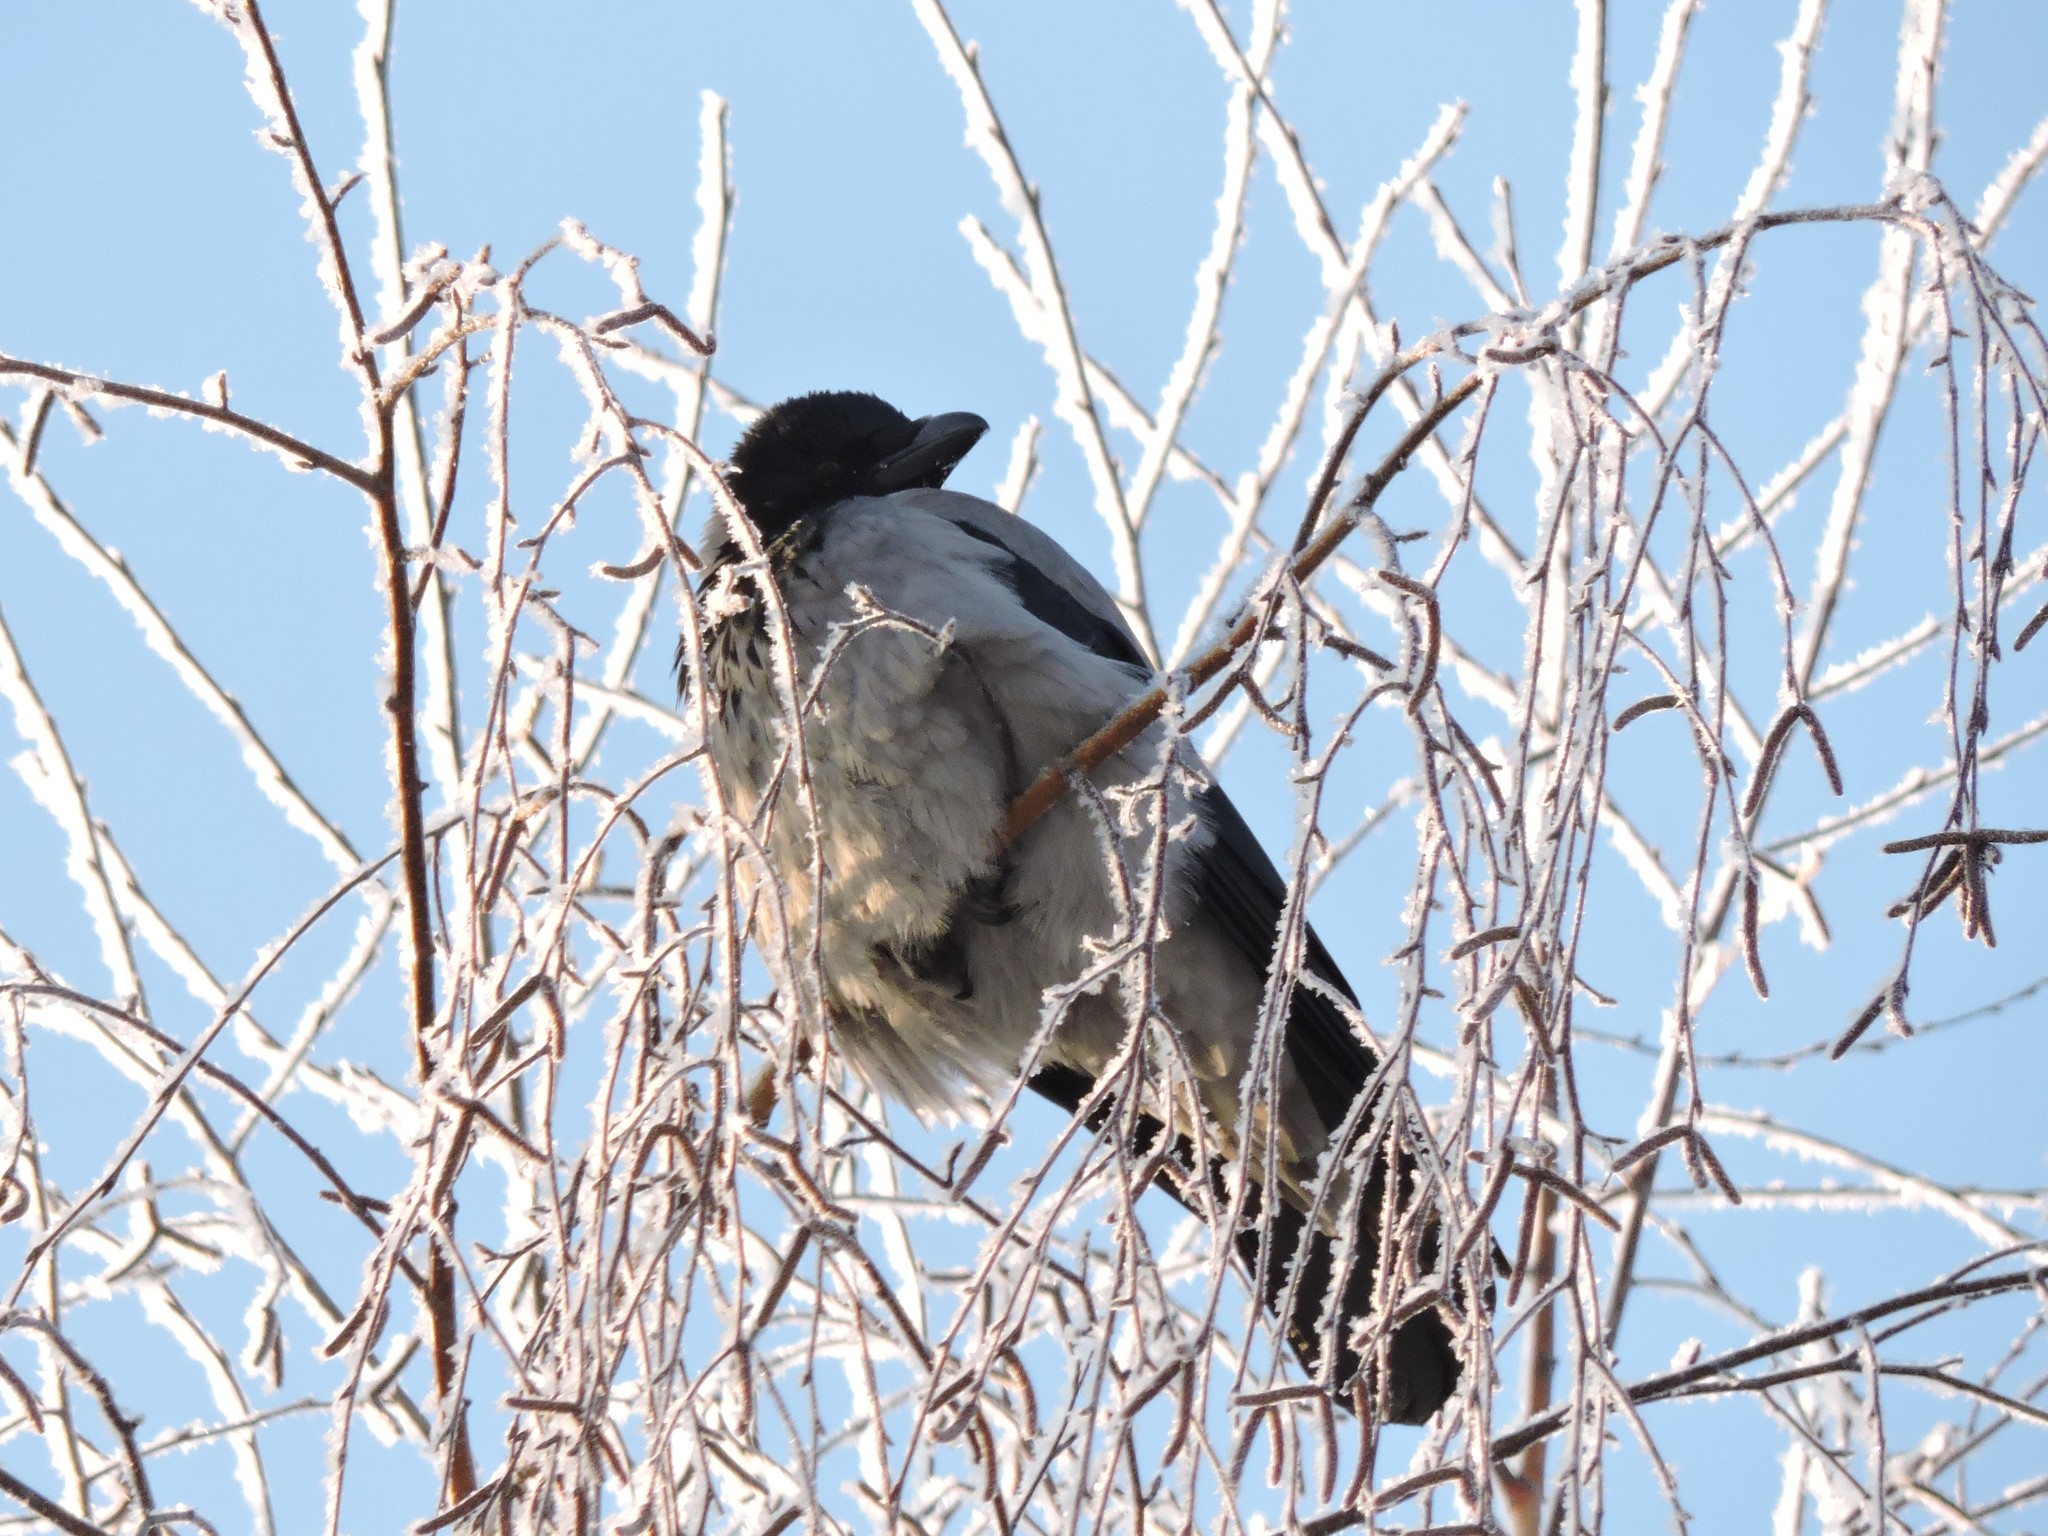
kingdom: Animalia
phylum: Chordata
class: Aves
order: Passeriformes
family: Corvidae
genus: Corvus
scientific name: Corvus cornix
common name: Hooded crow
